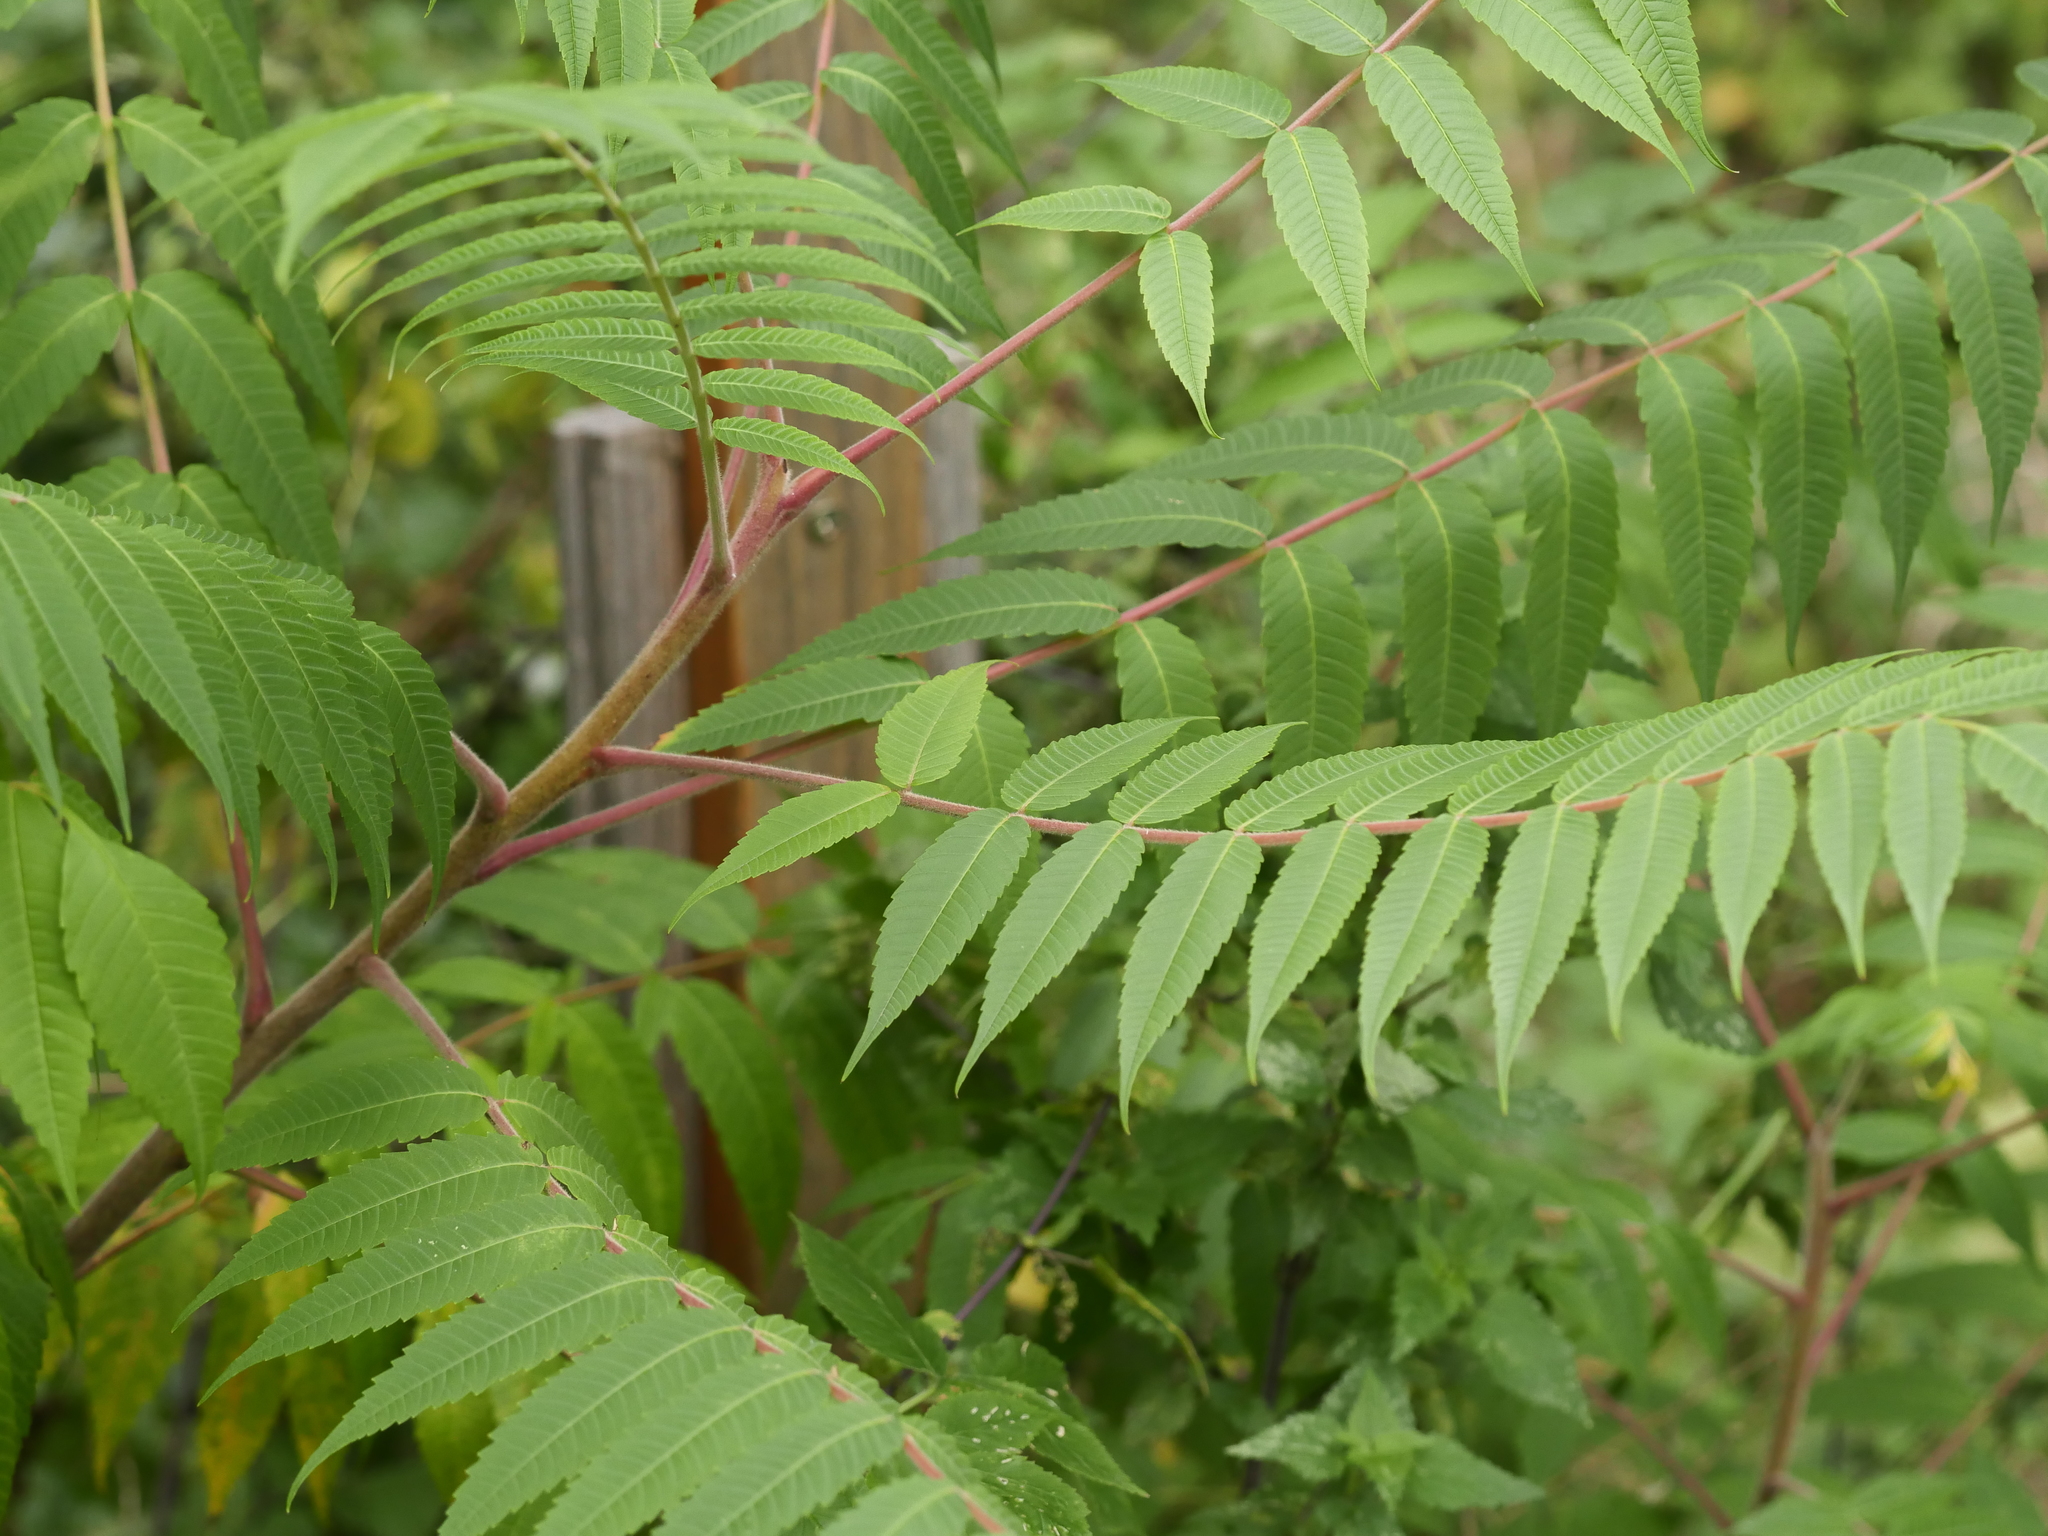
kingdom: Plantae
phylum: Tracheophyta
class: Magnoliopsida
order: Sapindales
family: Anacardiaceae
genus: Rhus
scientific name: Rhus typhina
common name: Staghorn sumac
